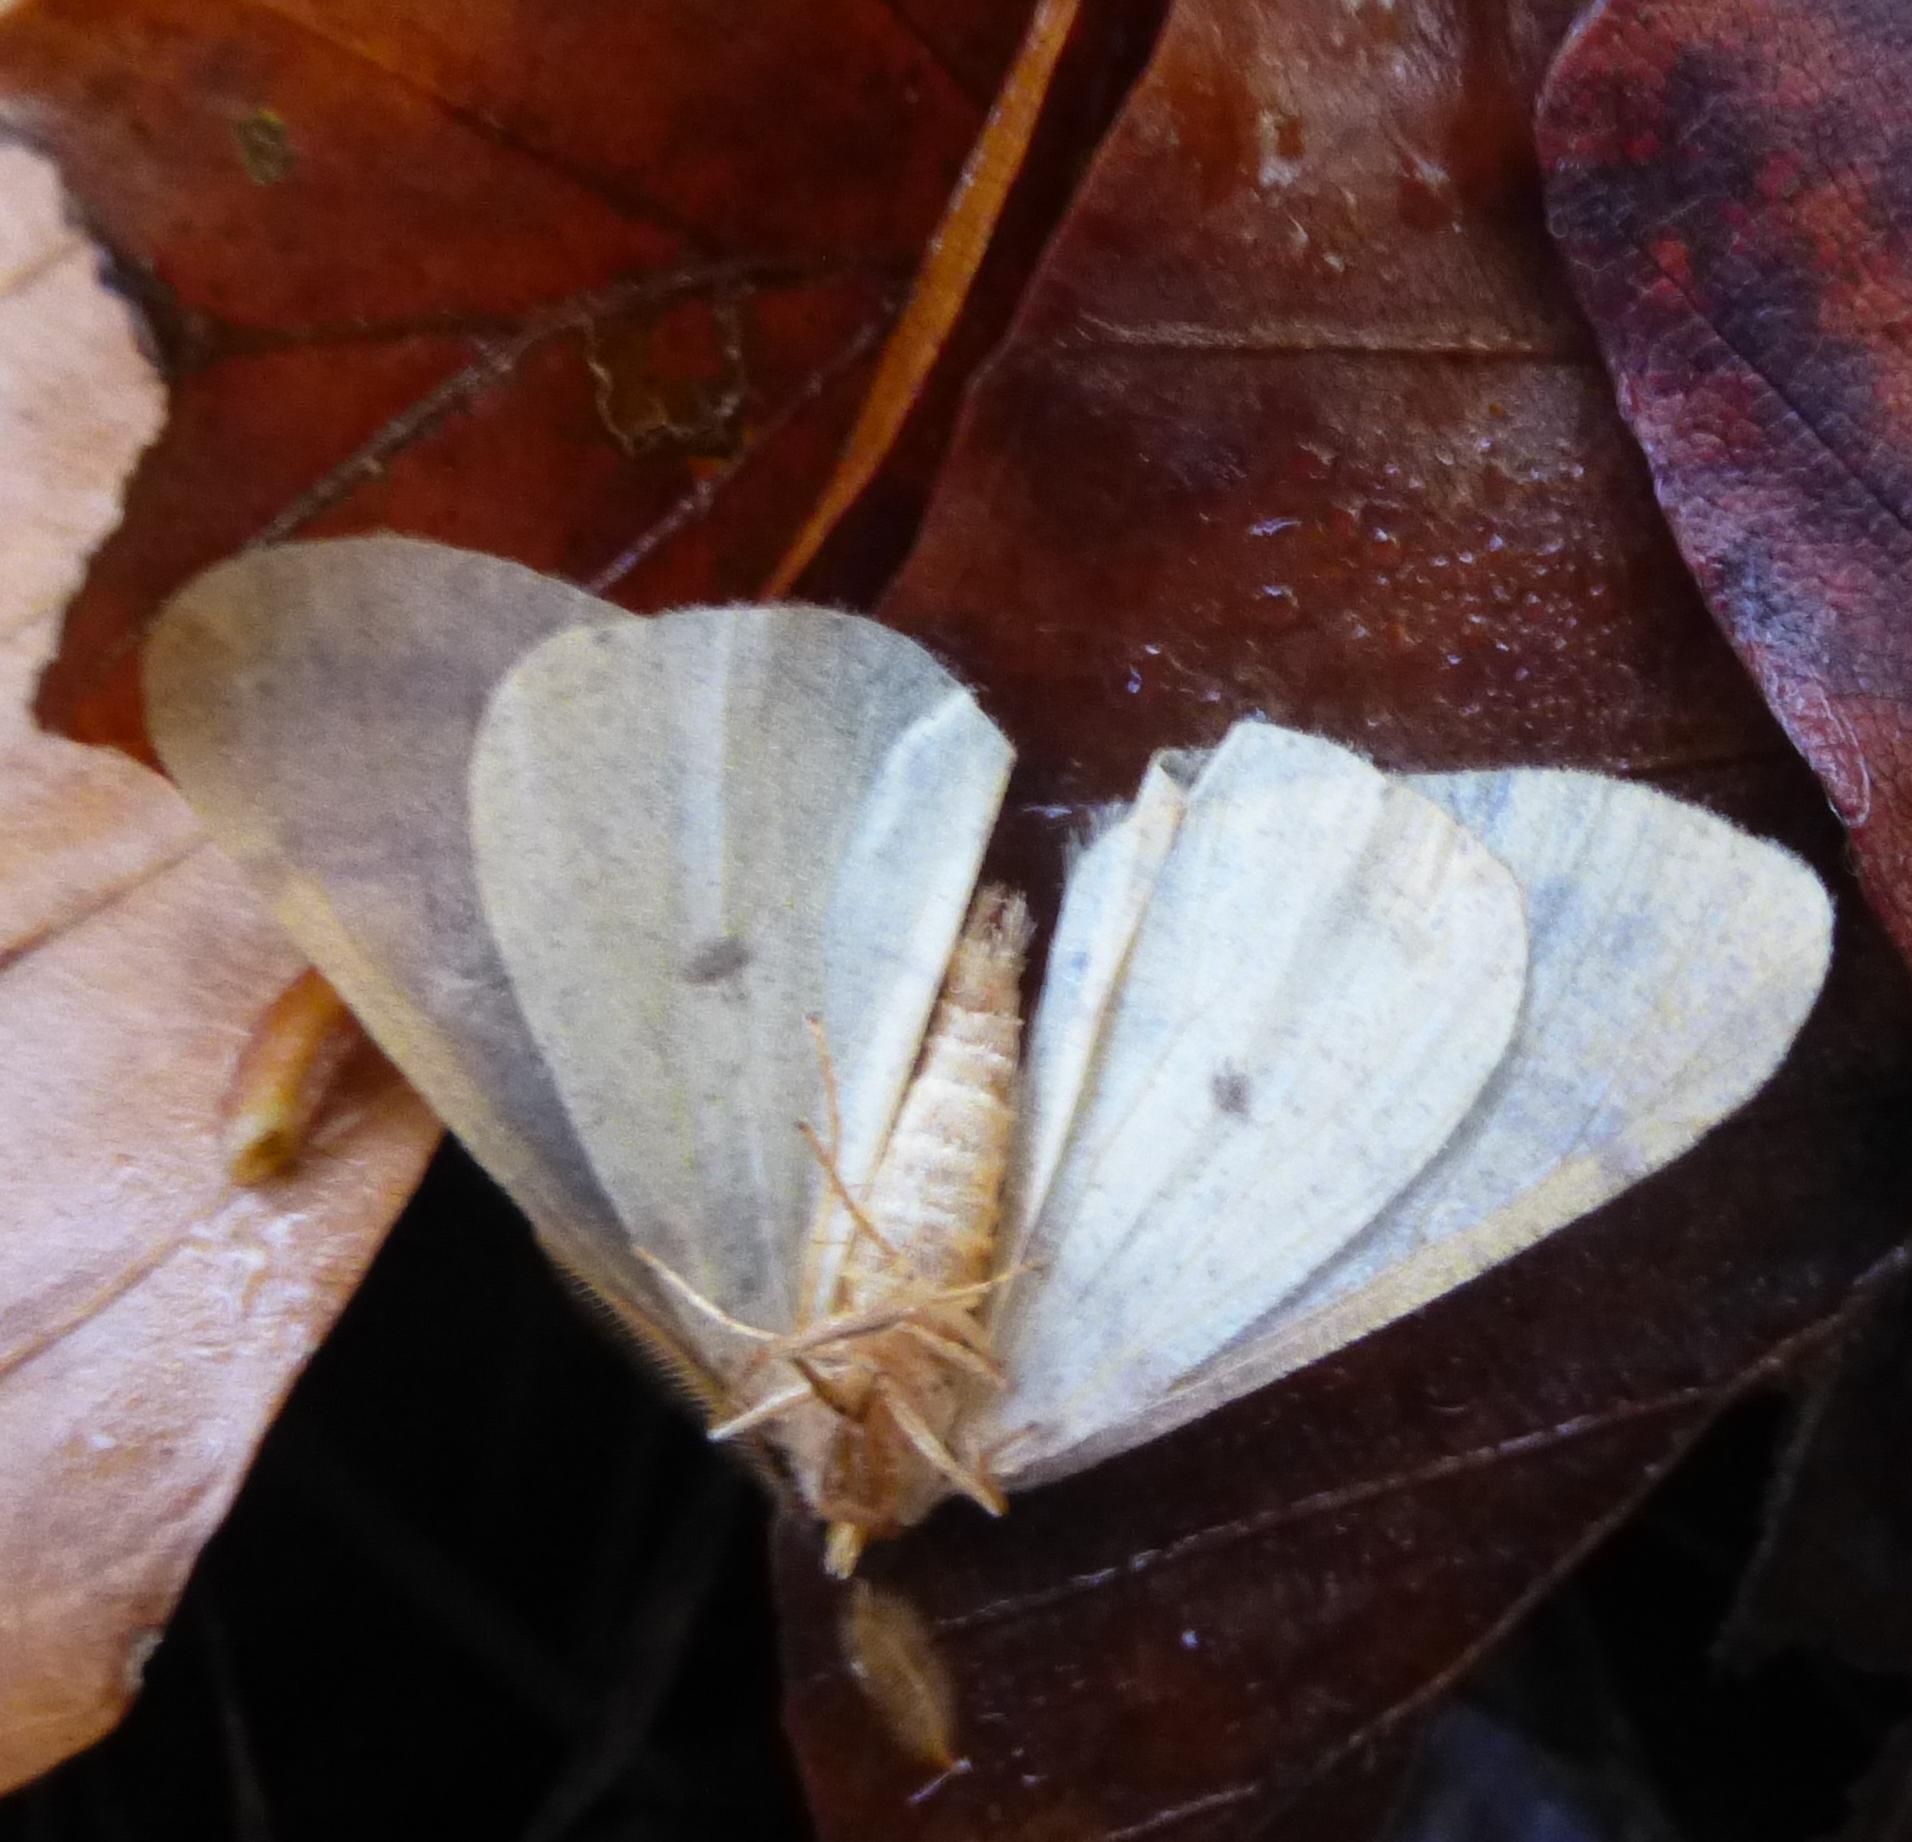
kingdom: Animalia
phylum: Arthropoda
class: Insecta
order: Lepidoptera
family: Geometridae
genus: Agriopis
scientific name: Agriopis aurantiaria
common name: Scarce umber
